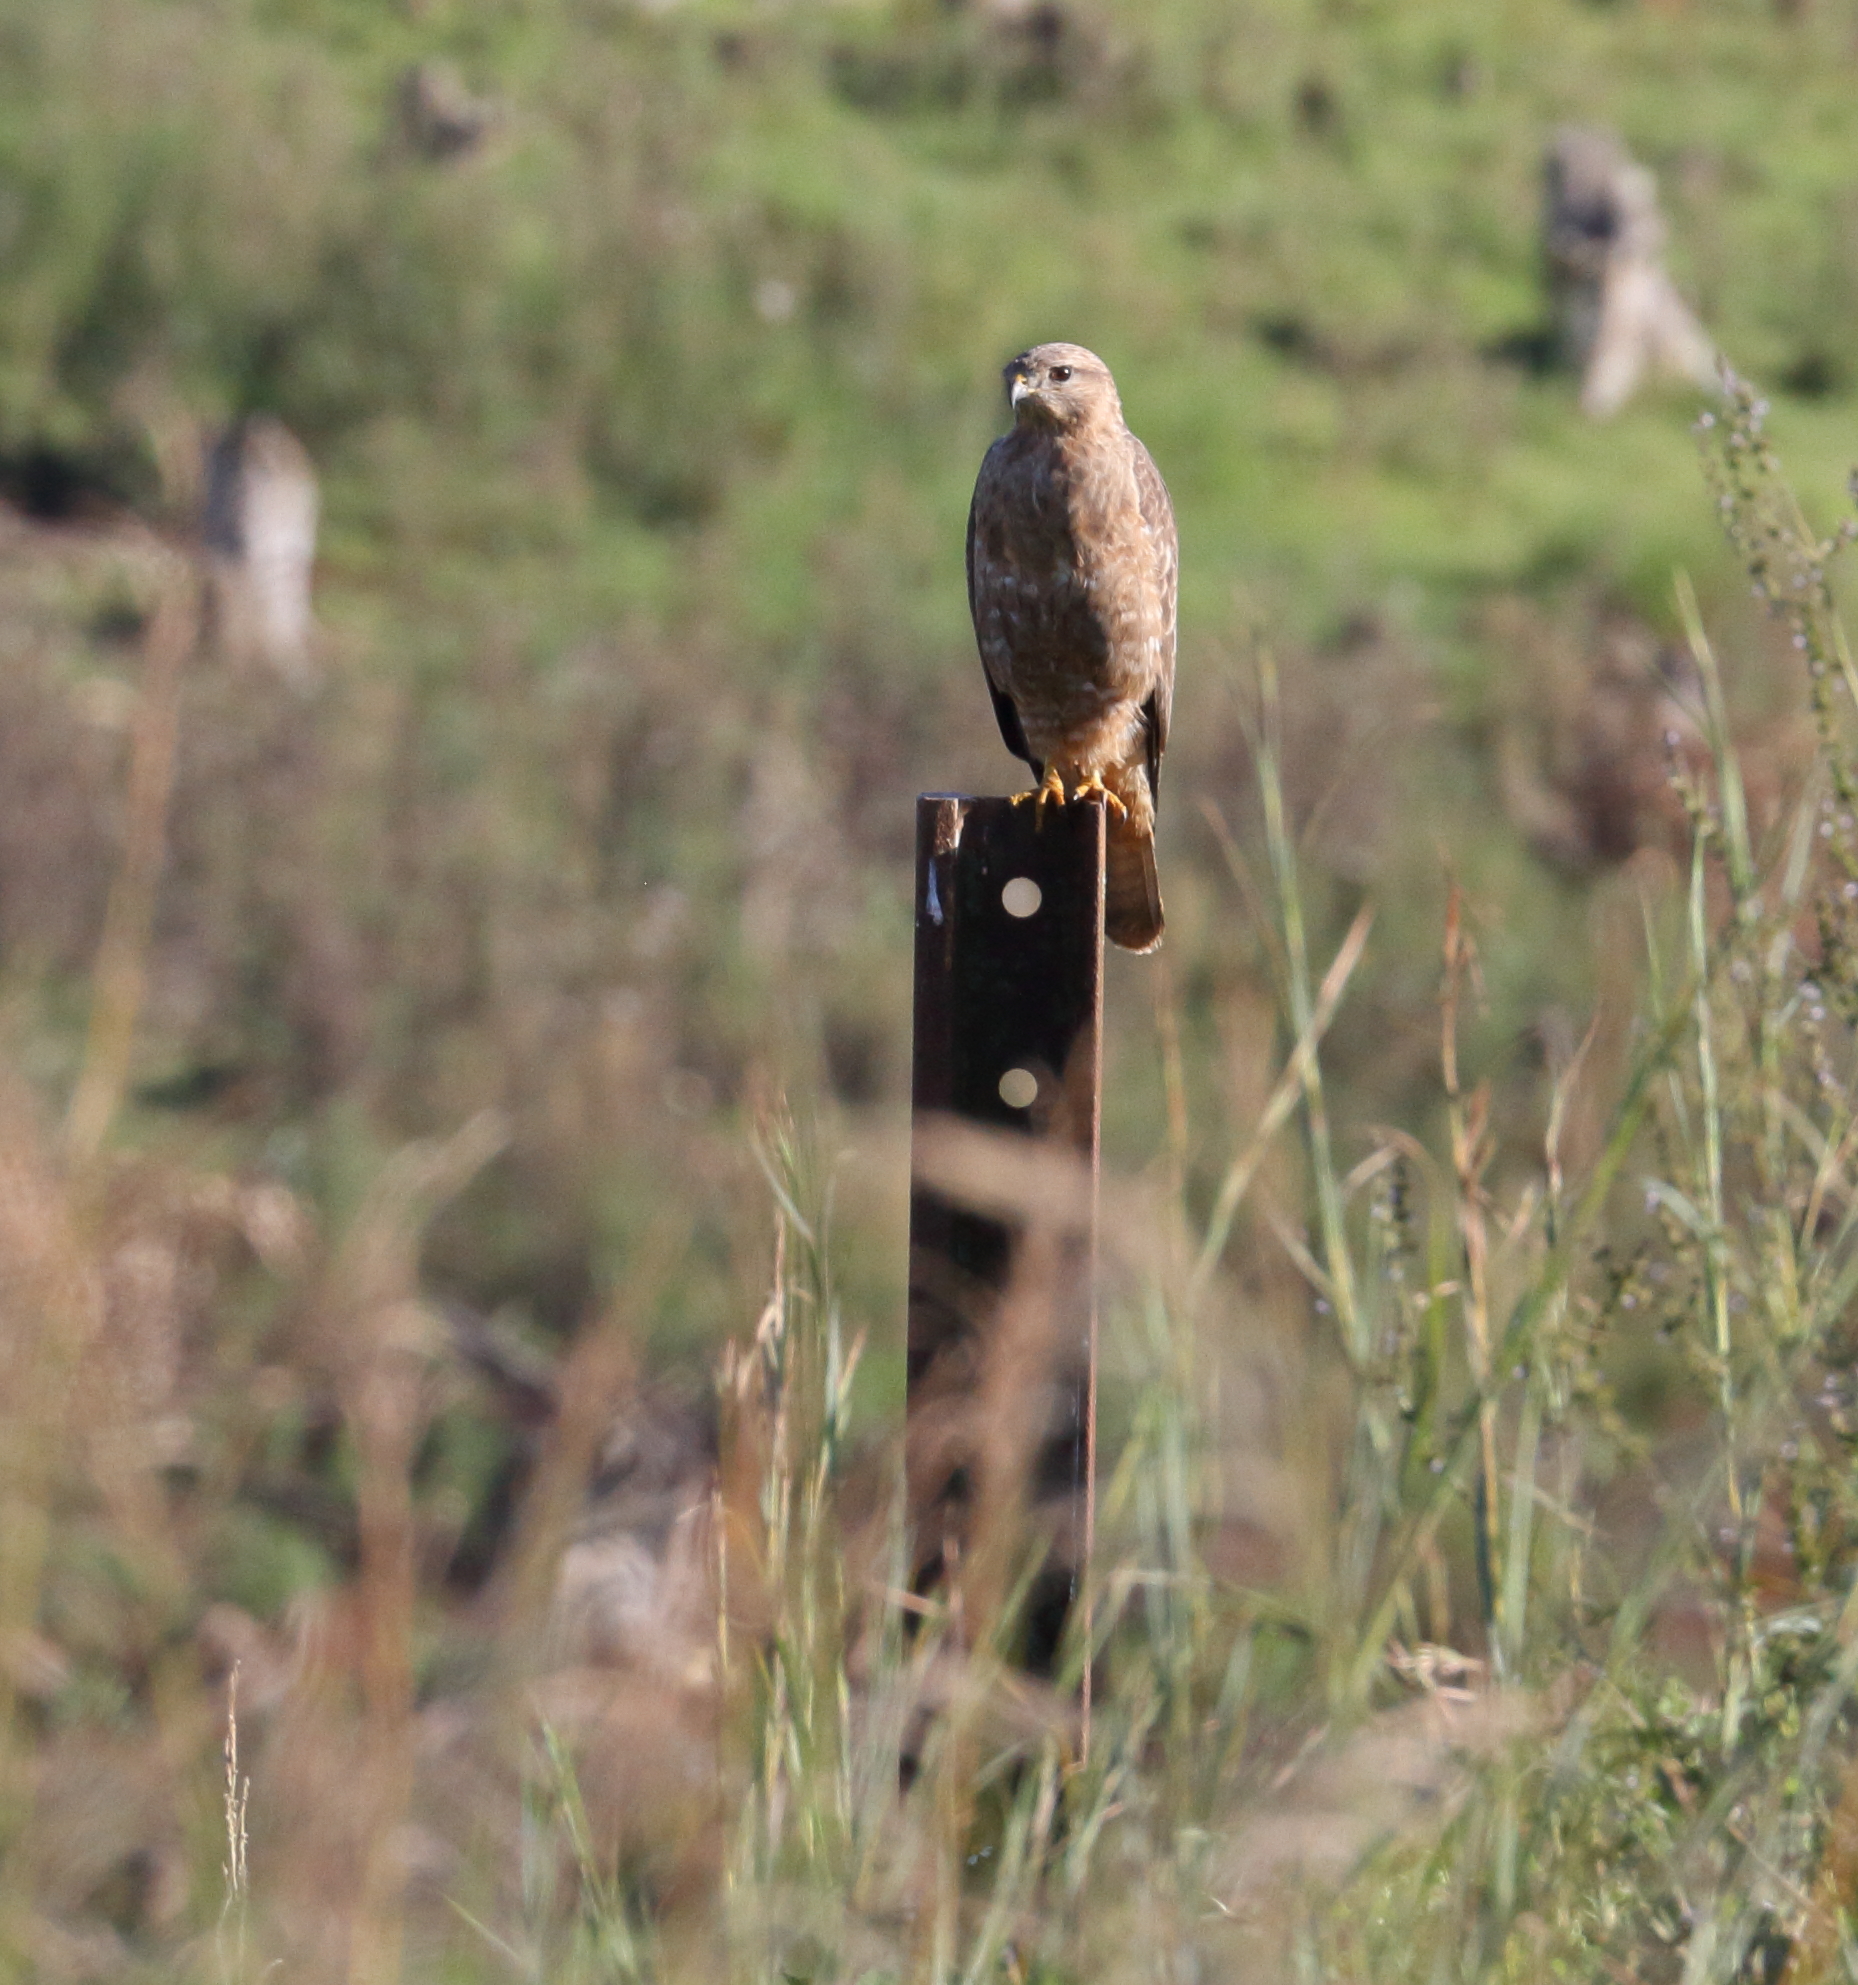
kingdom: Animalia
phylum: Chordata
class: Aves
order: Accipitriformes
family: Accipitridae
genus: Buteo
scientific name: Buteo buteo
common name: Common buzzard
